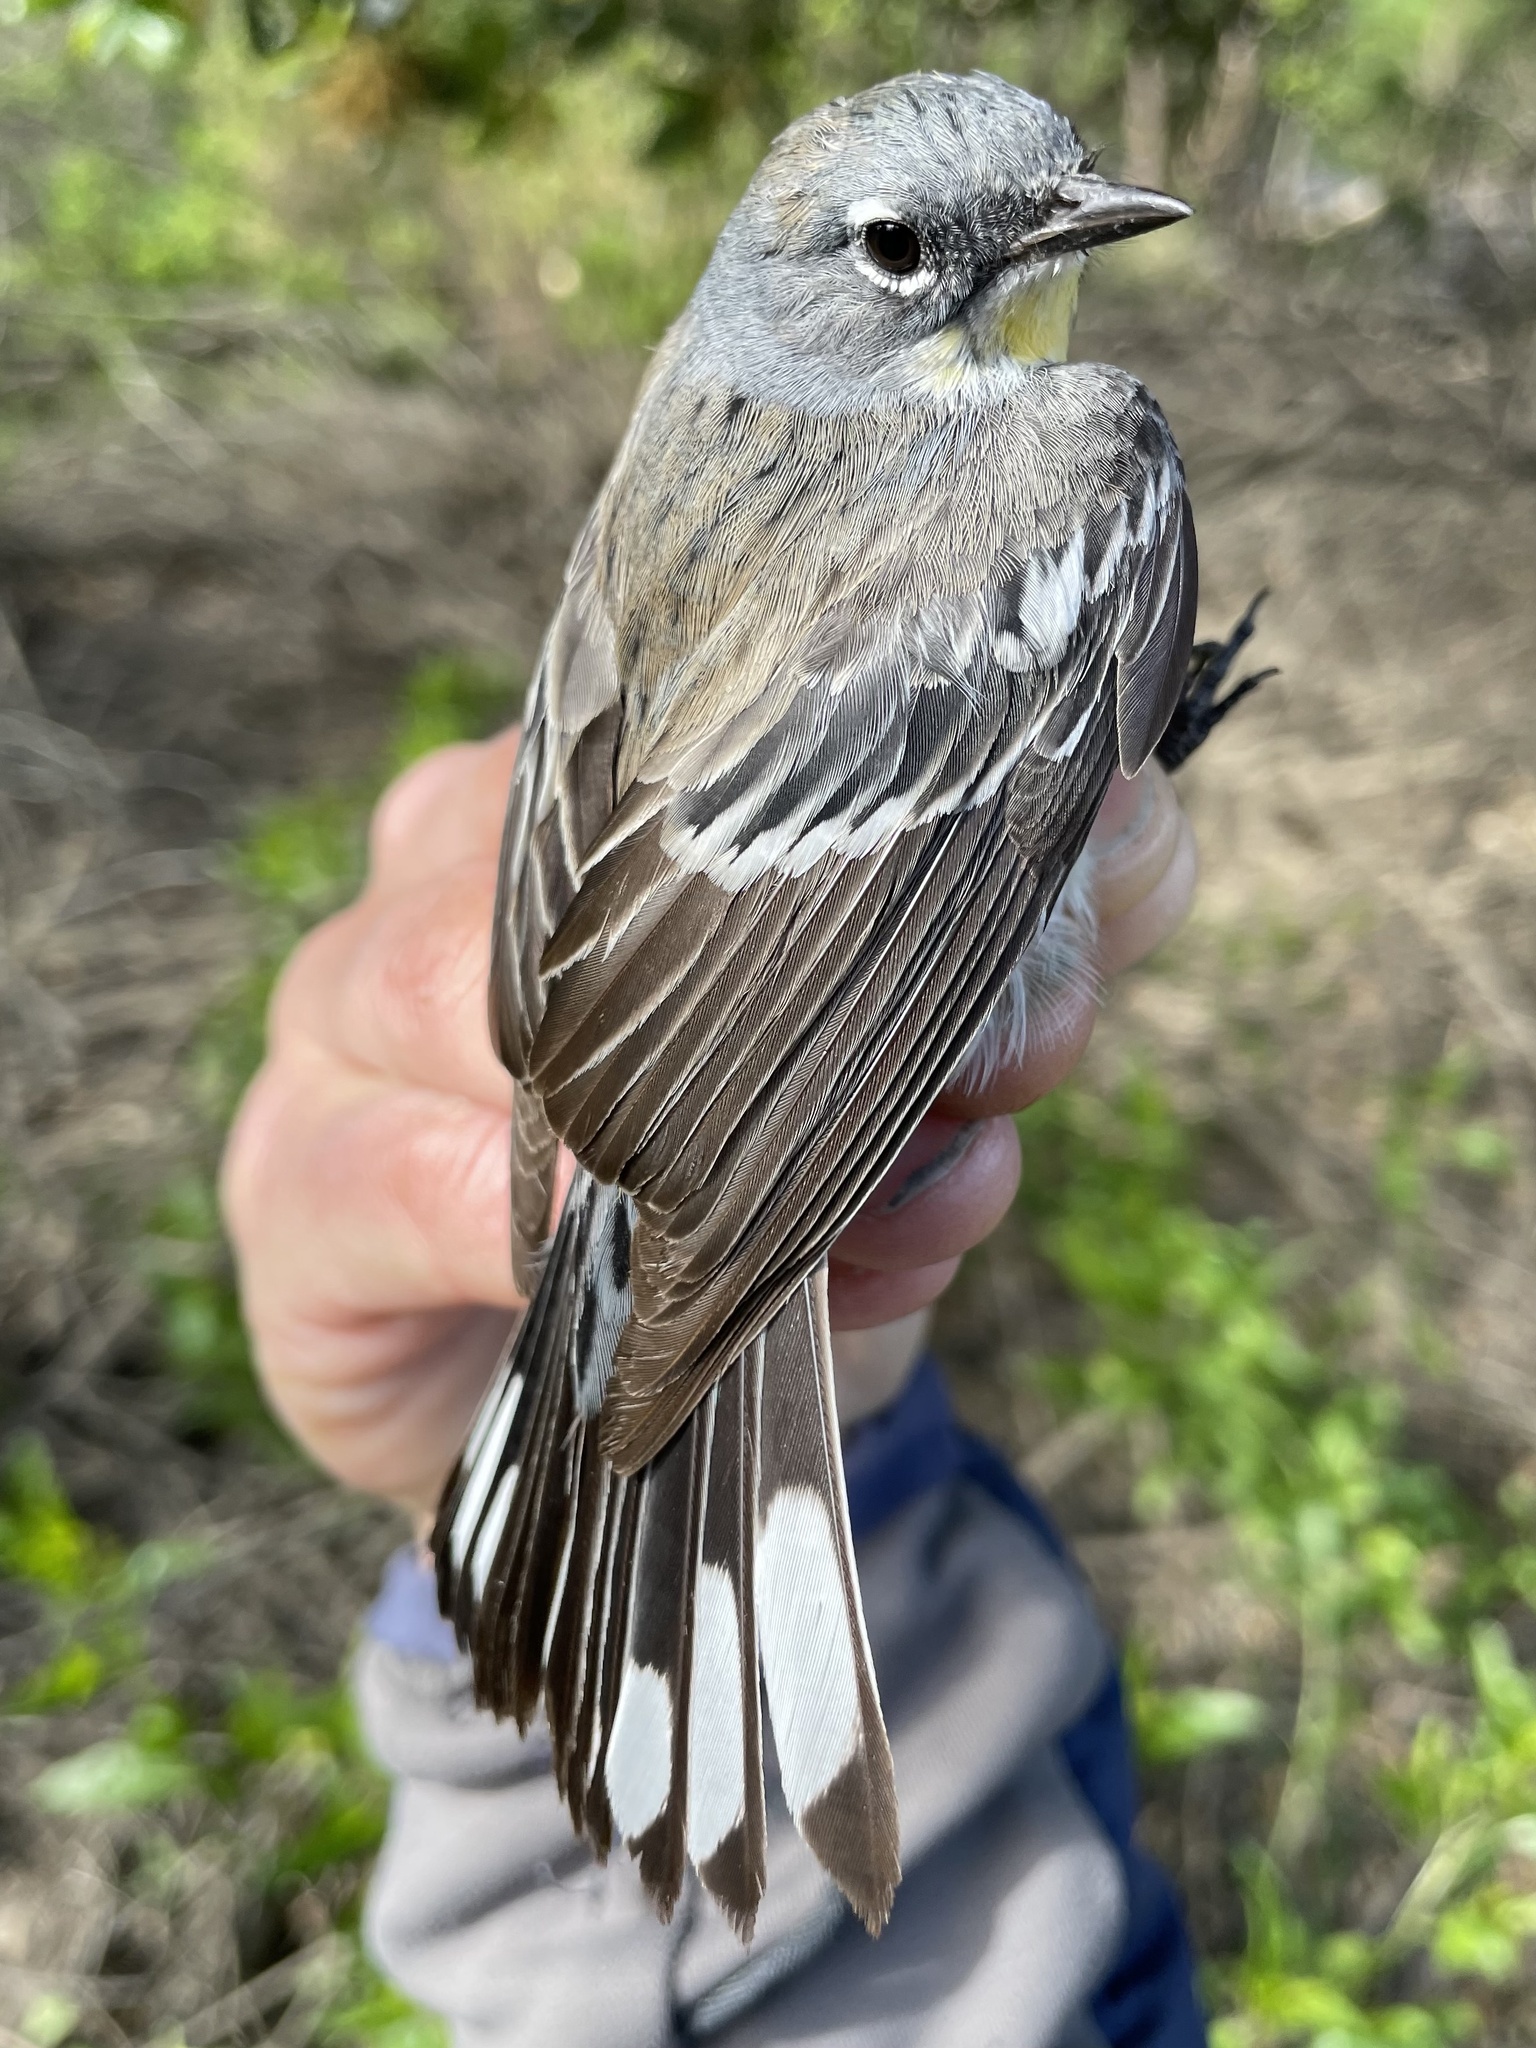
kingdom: Animalia
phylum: Chordata
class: Aves
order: Passeriformes
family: Parulidae
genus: Setophaga
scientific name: Setophaga coronata
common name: Myrtle warbler
